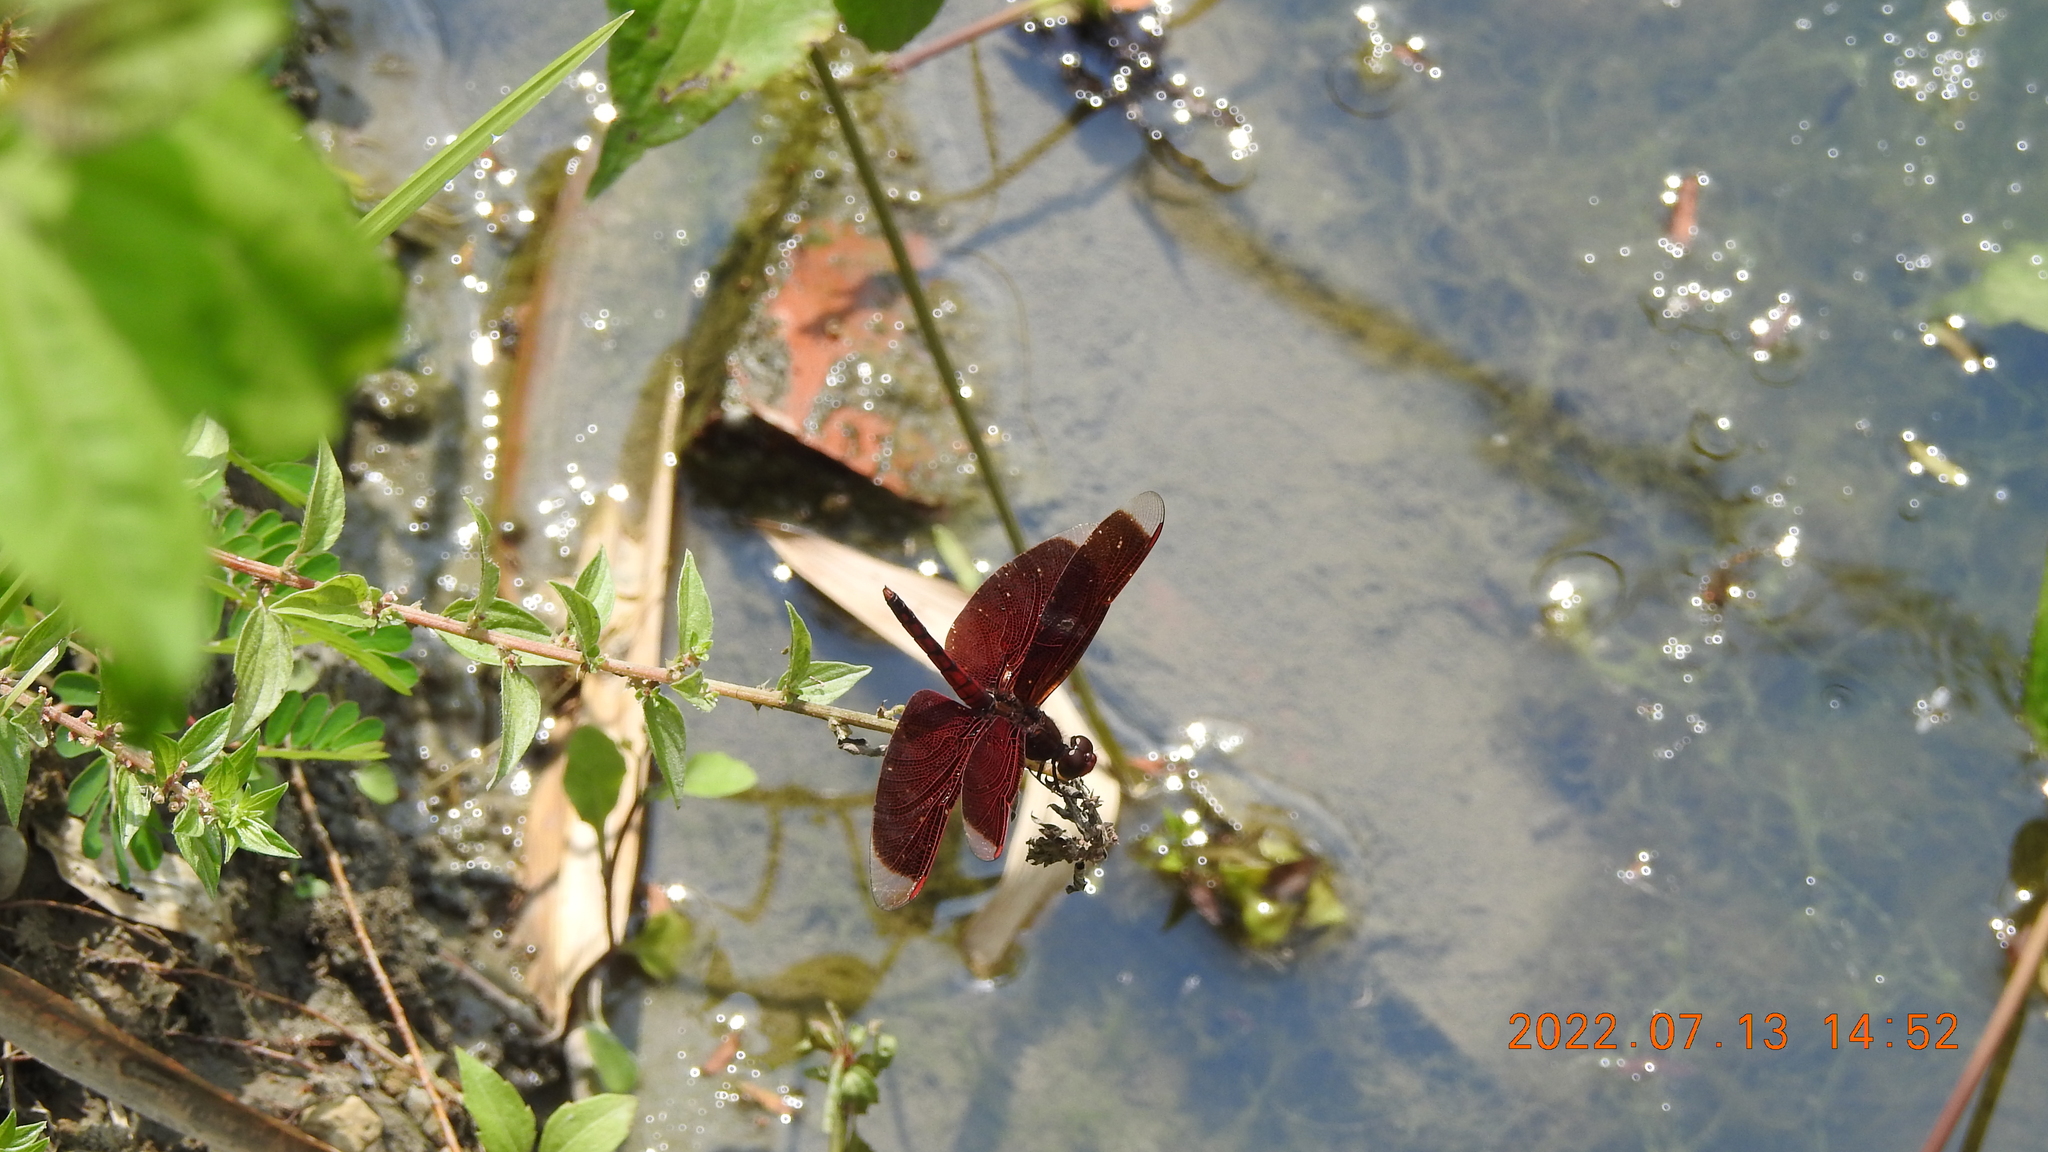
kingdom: Animalia
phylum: Arthropoda
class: Insecta
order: Odonata
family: Libellulidae
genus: Neurothemis
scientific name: Neurothemis taiwanensis
